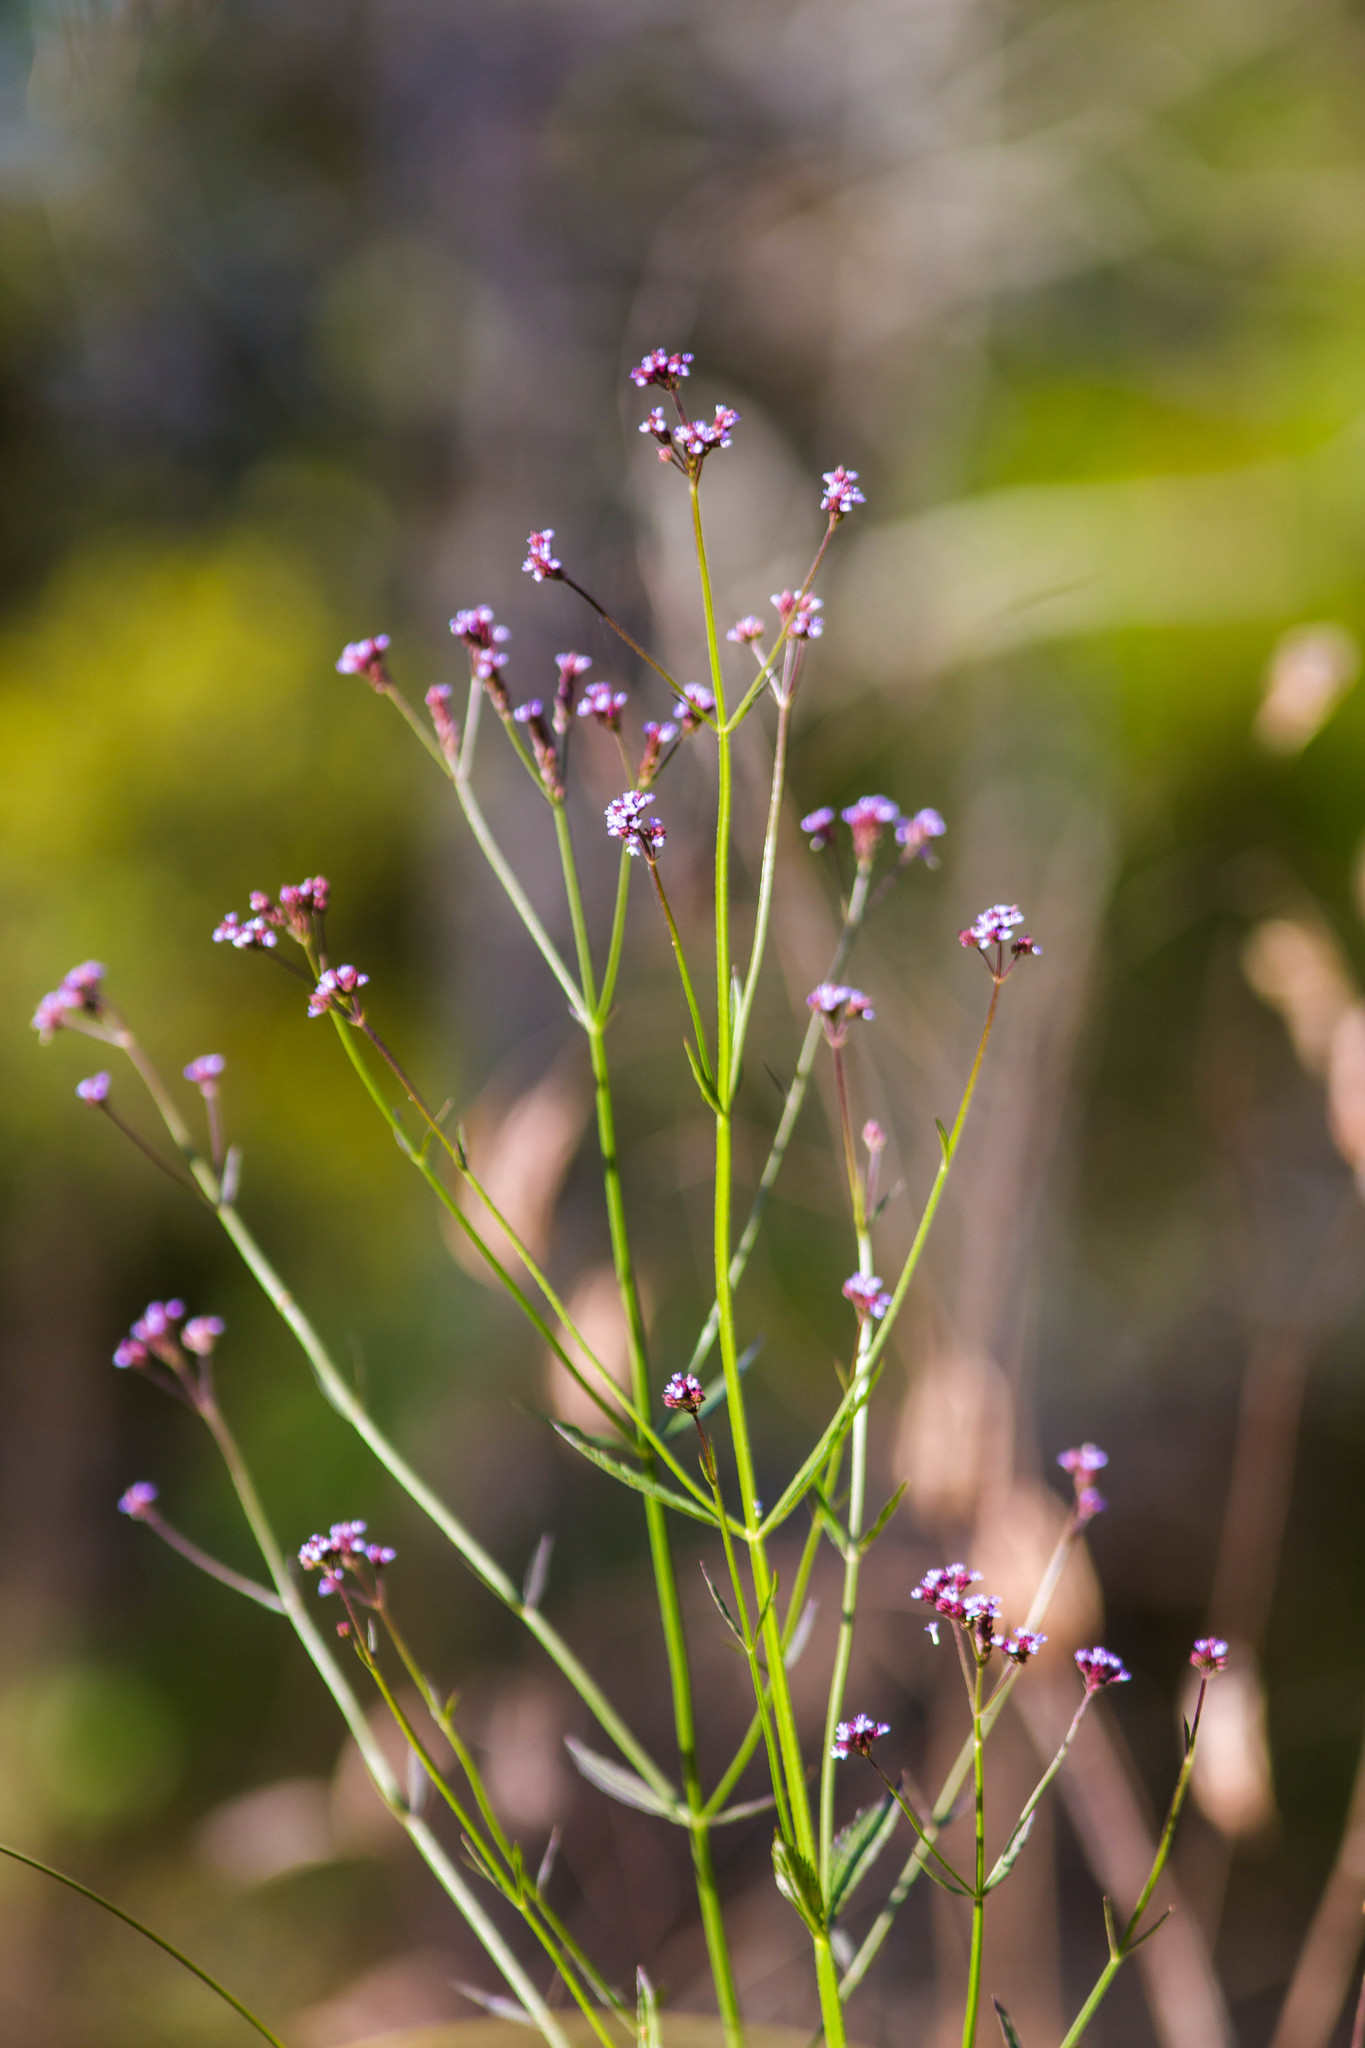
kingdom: Plantae
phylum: Tracheophyta
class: Magnoliopsida
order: Lamiales
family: Verbenaceae
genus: Verbena
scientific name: Verbena brasiliensis
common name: Brazilian vervain
